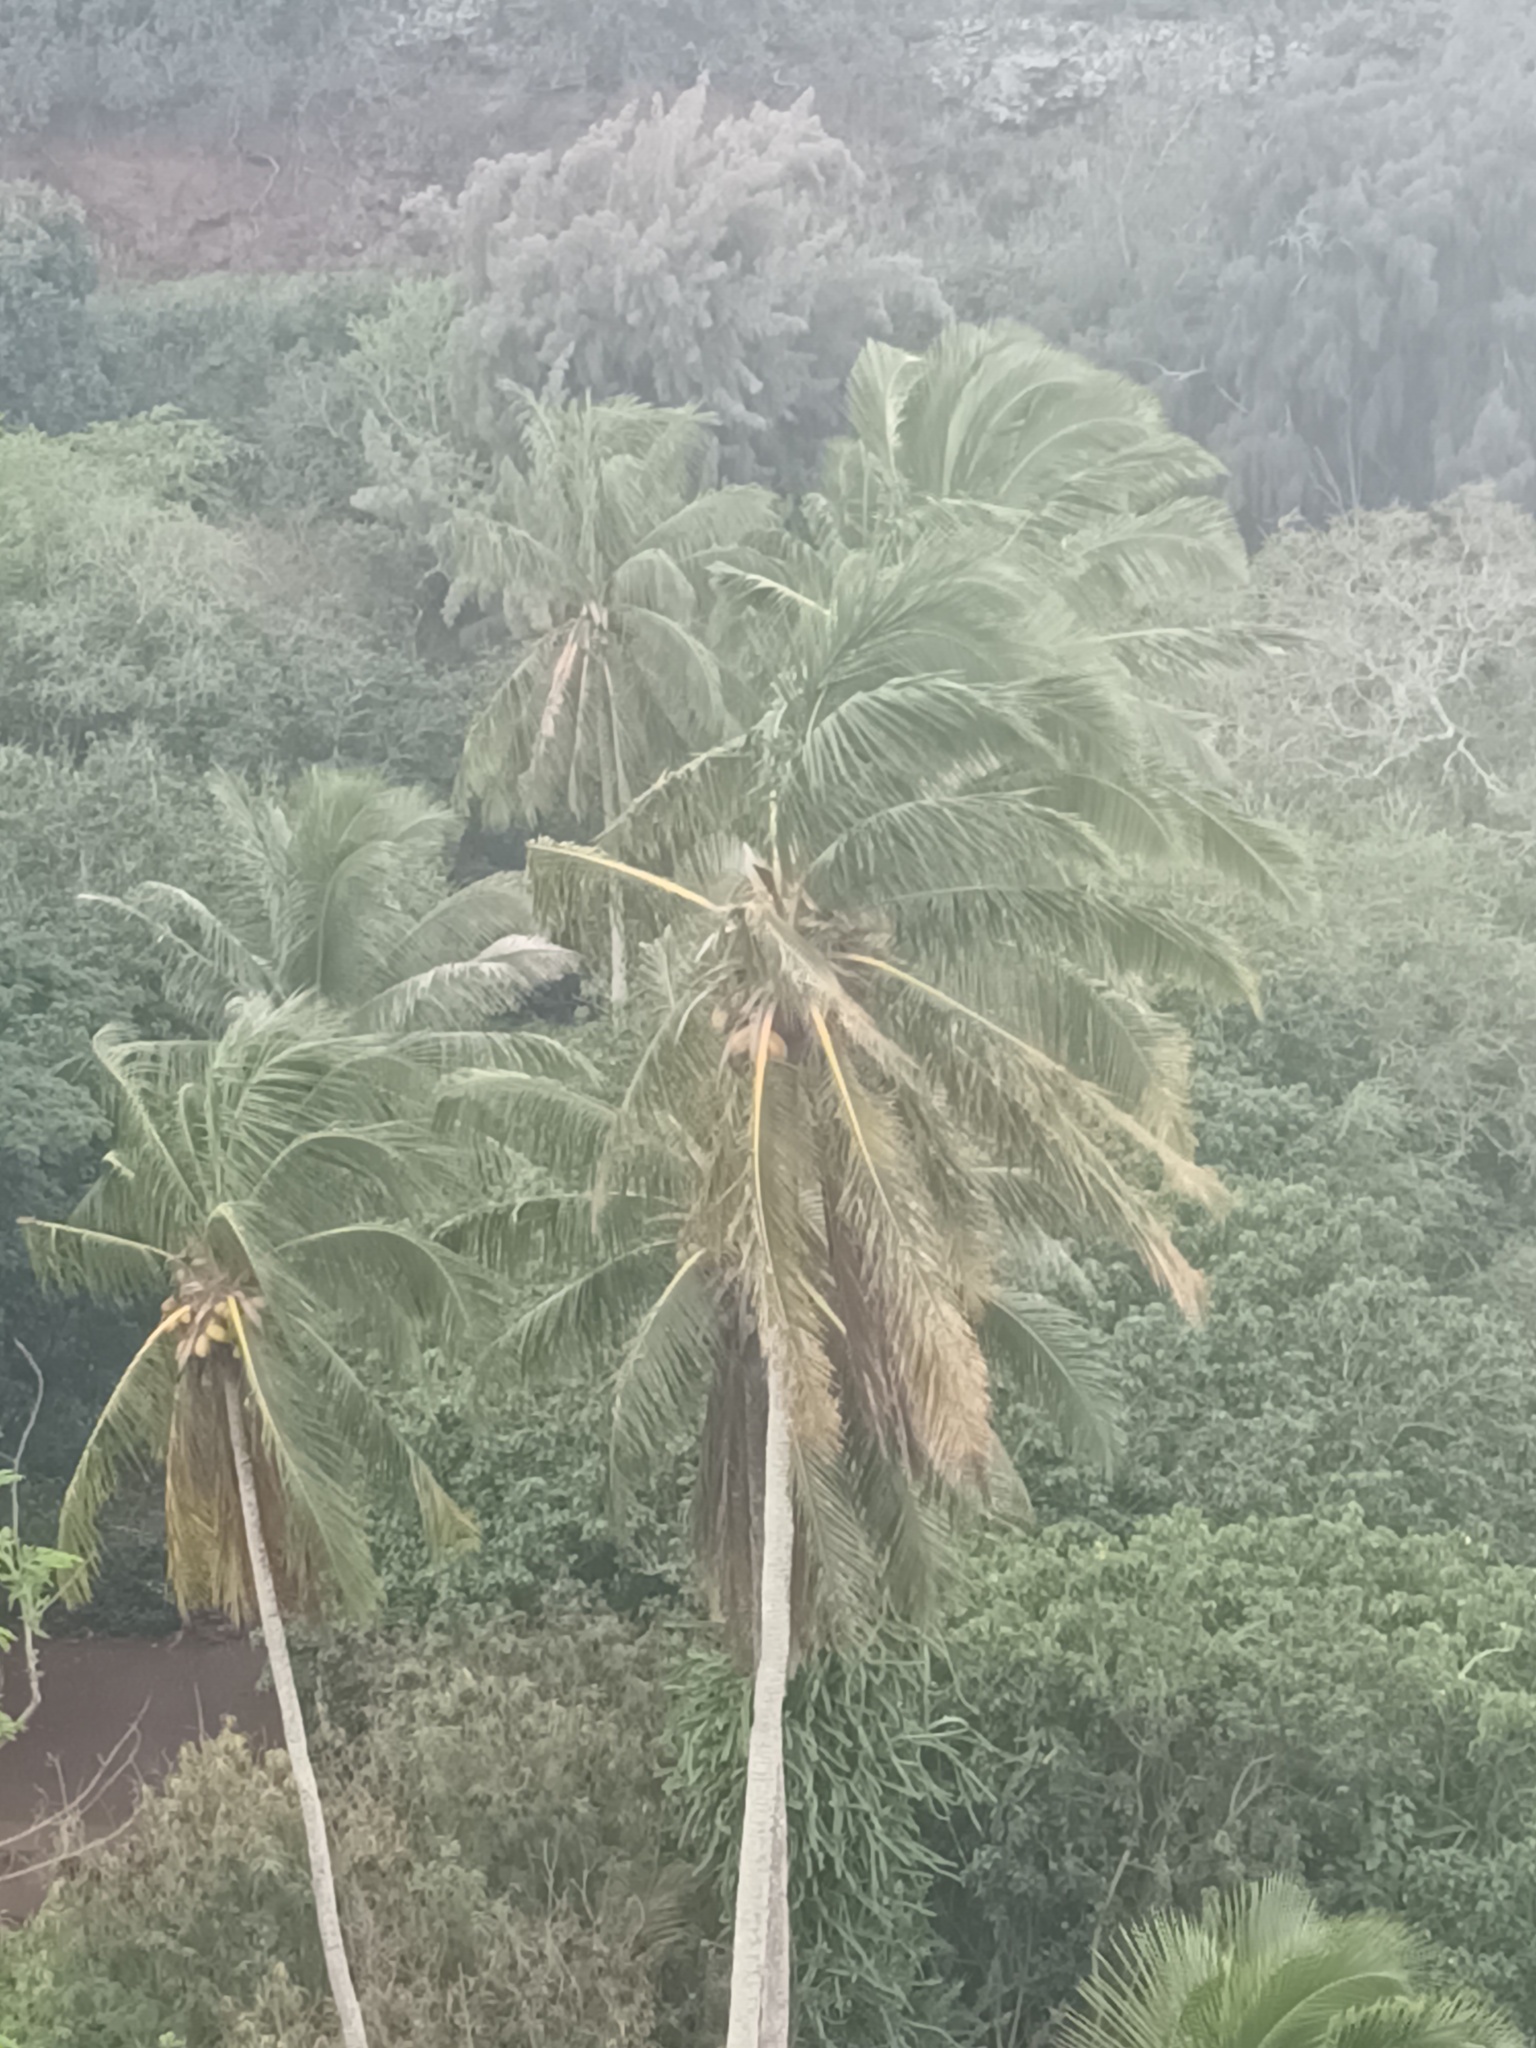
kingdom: Plantae
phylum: Tracheophyta
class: Liliopsida
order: Arecales
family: Arecaceae
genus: Cocos
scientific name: Cocos nucifera
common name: Coconut palm
